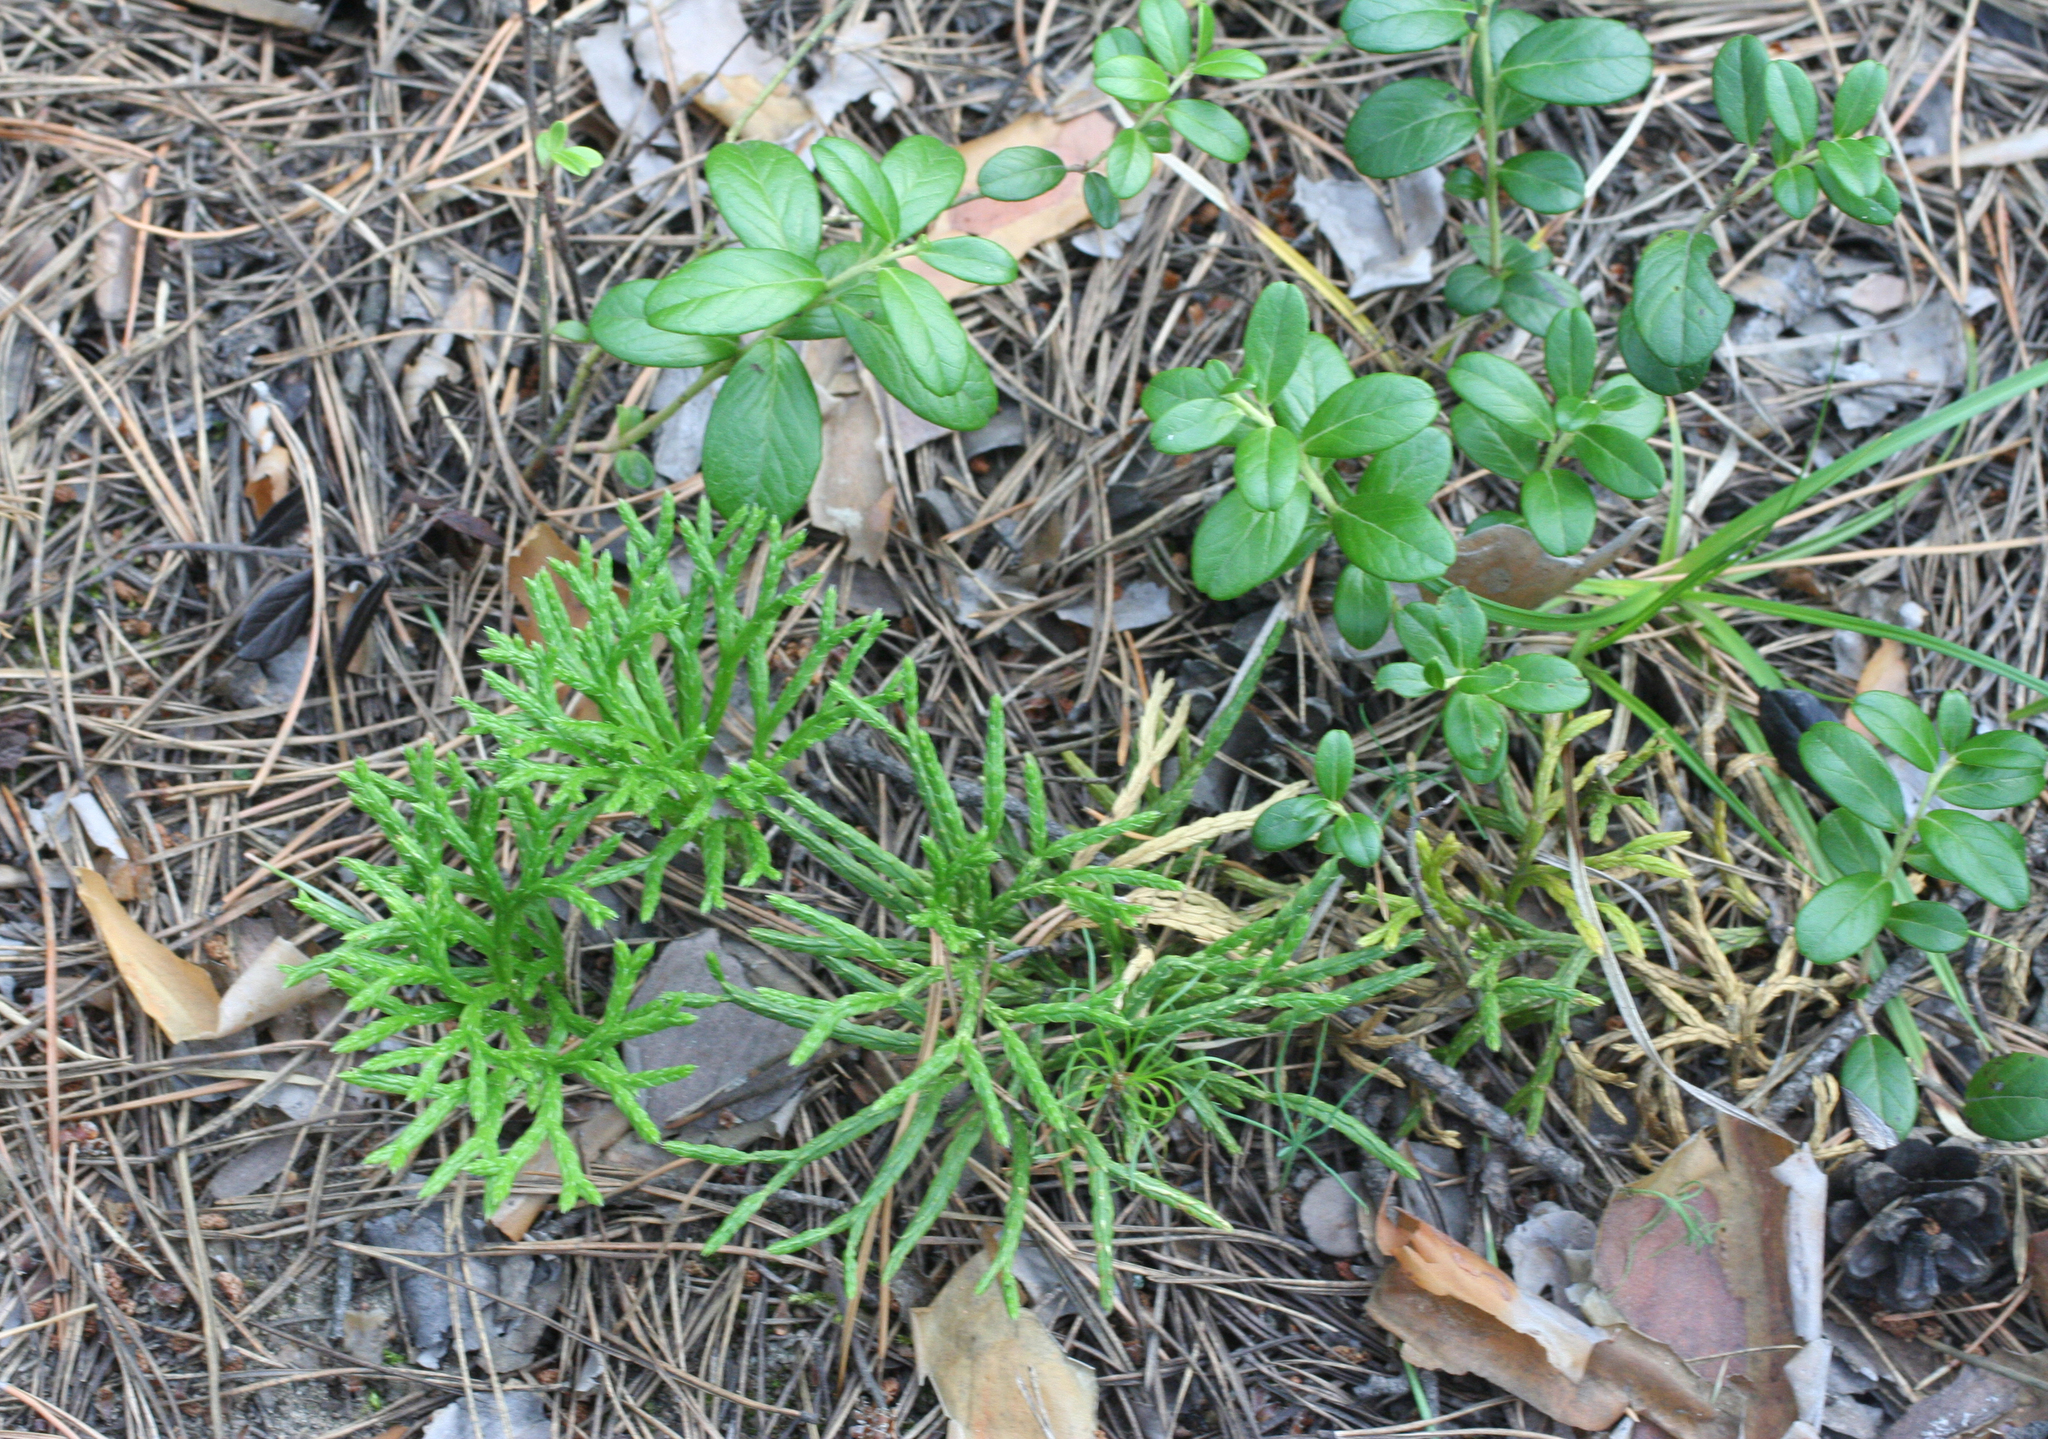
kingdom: Plantae
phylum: Tracheophyta
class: Lycopodiopsida
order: Lycopodiales
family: Lycopodiaceae
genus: Diphasiastrum
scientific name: Diphasiastrum complanatum
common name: Northern running-pine
